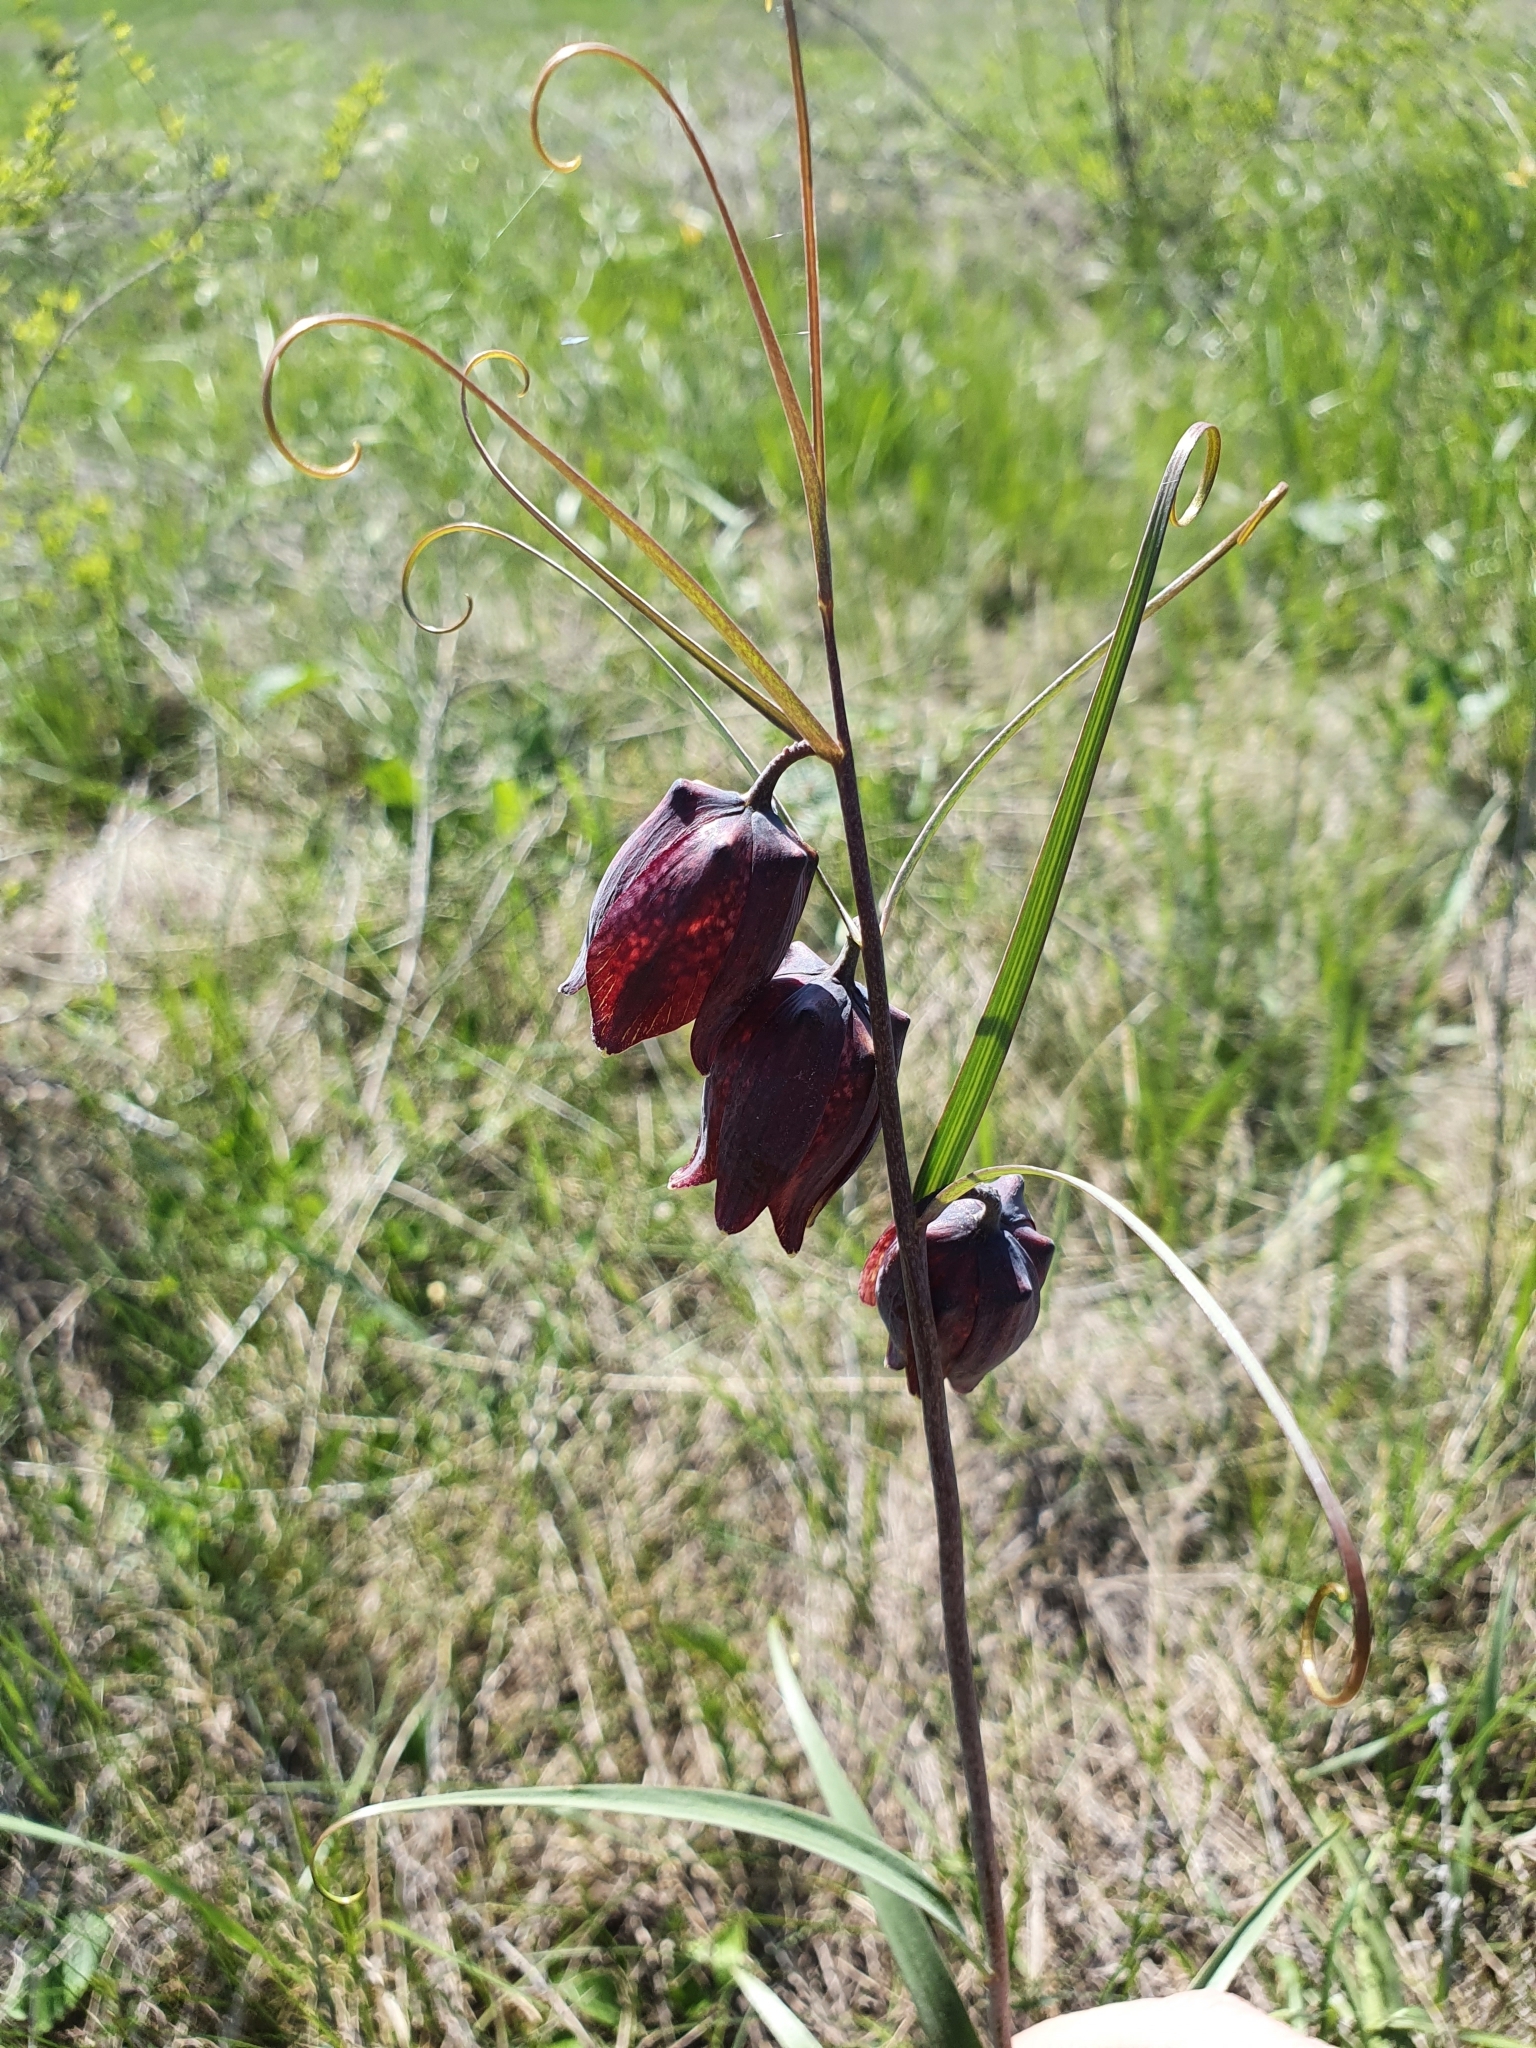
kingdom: Plantae
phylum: Tracheophyta
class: Liliopsida
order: Liliales
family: Liliaceae
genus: Fritillaria
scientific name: Fritillaria ruthenica
